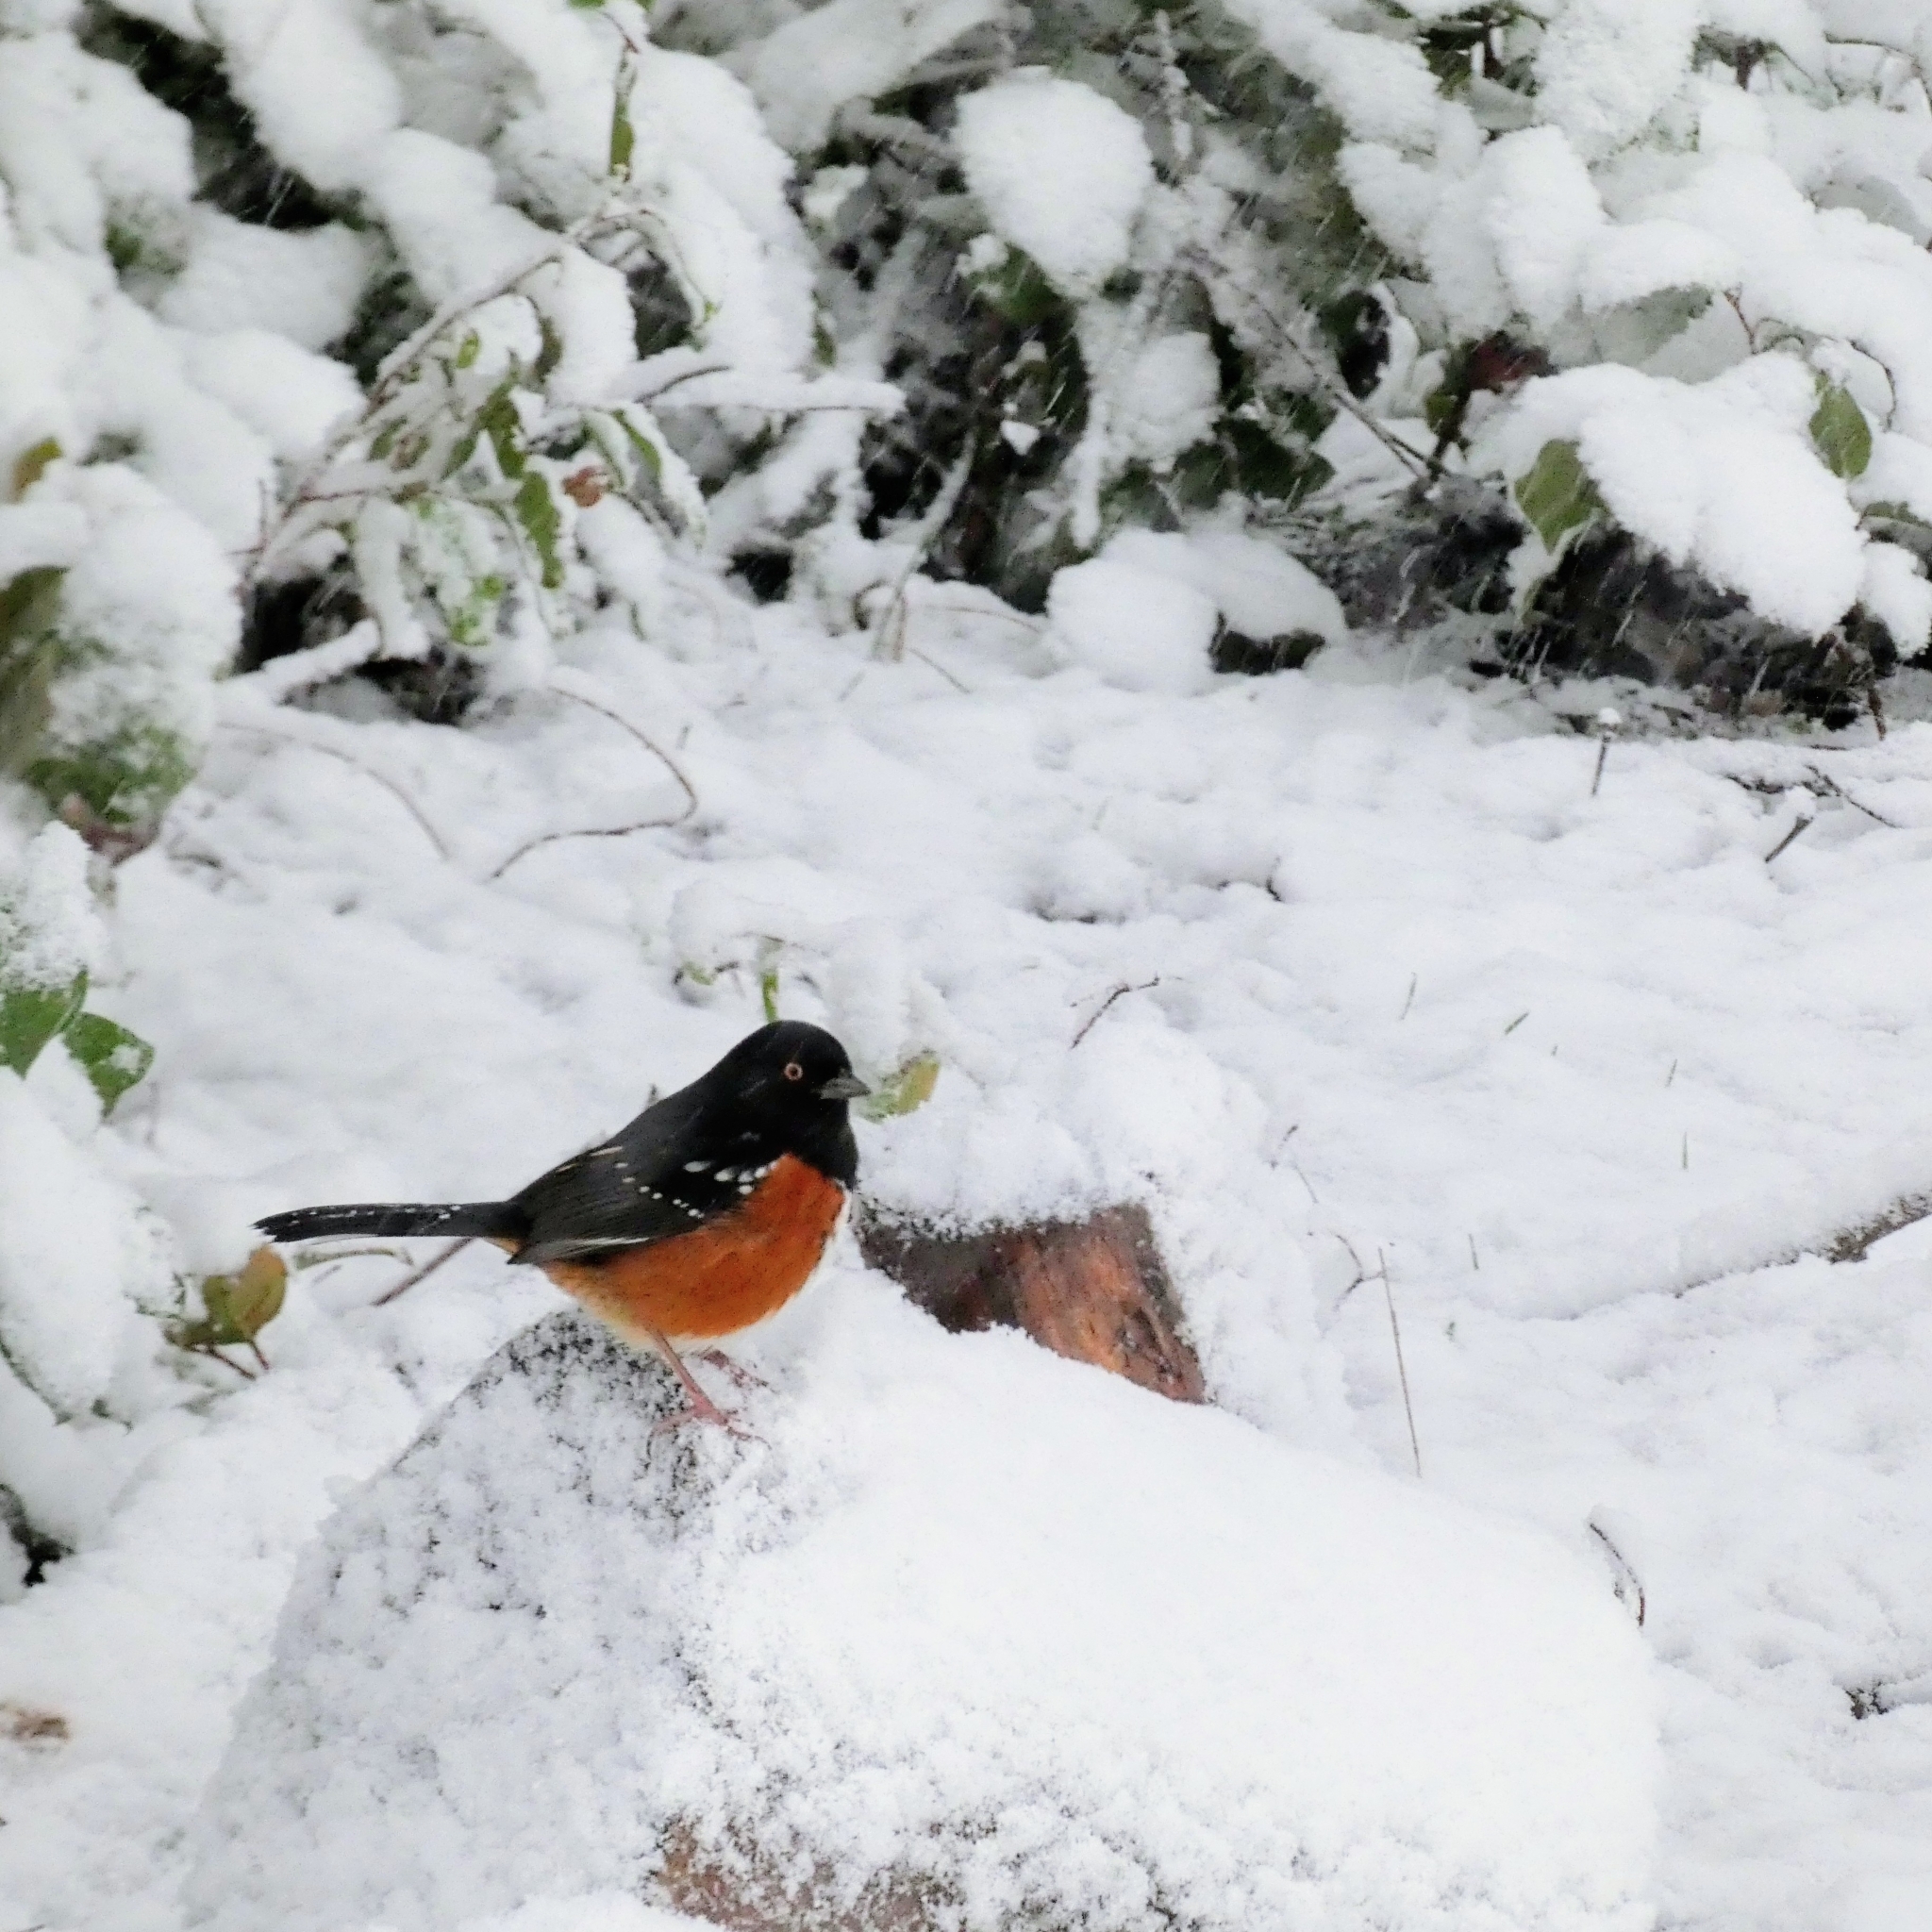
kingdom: Animalia
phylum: Chordata
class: Aves
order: Passeriformes
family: Passerellidae
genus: Pipilo
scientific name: Pipilo maculatus
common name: Spotted towhee
